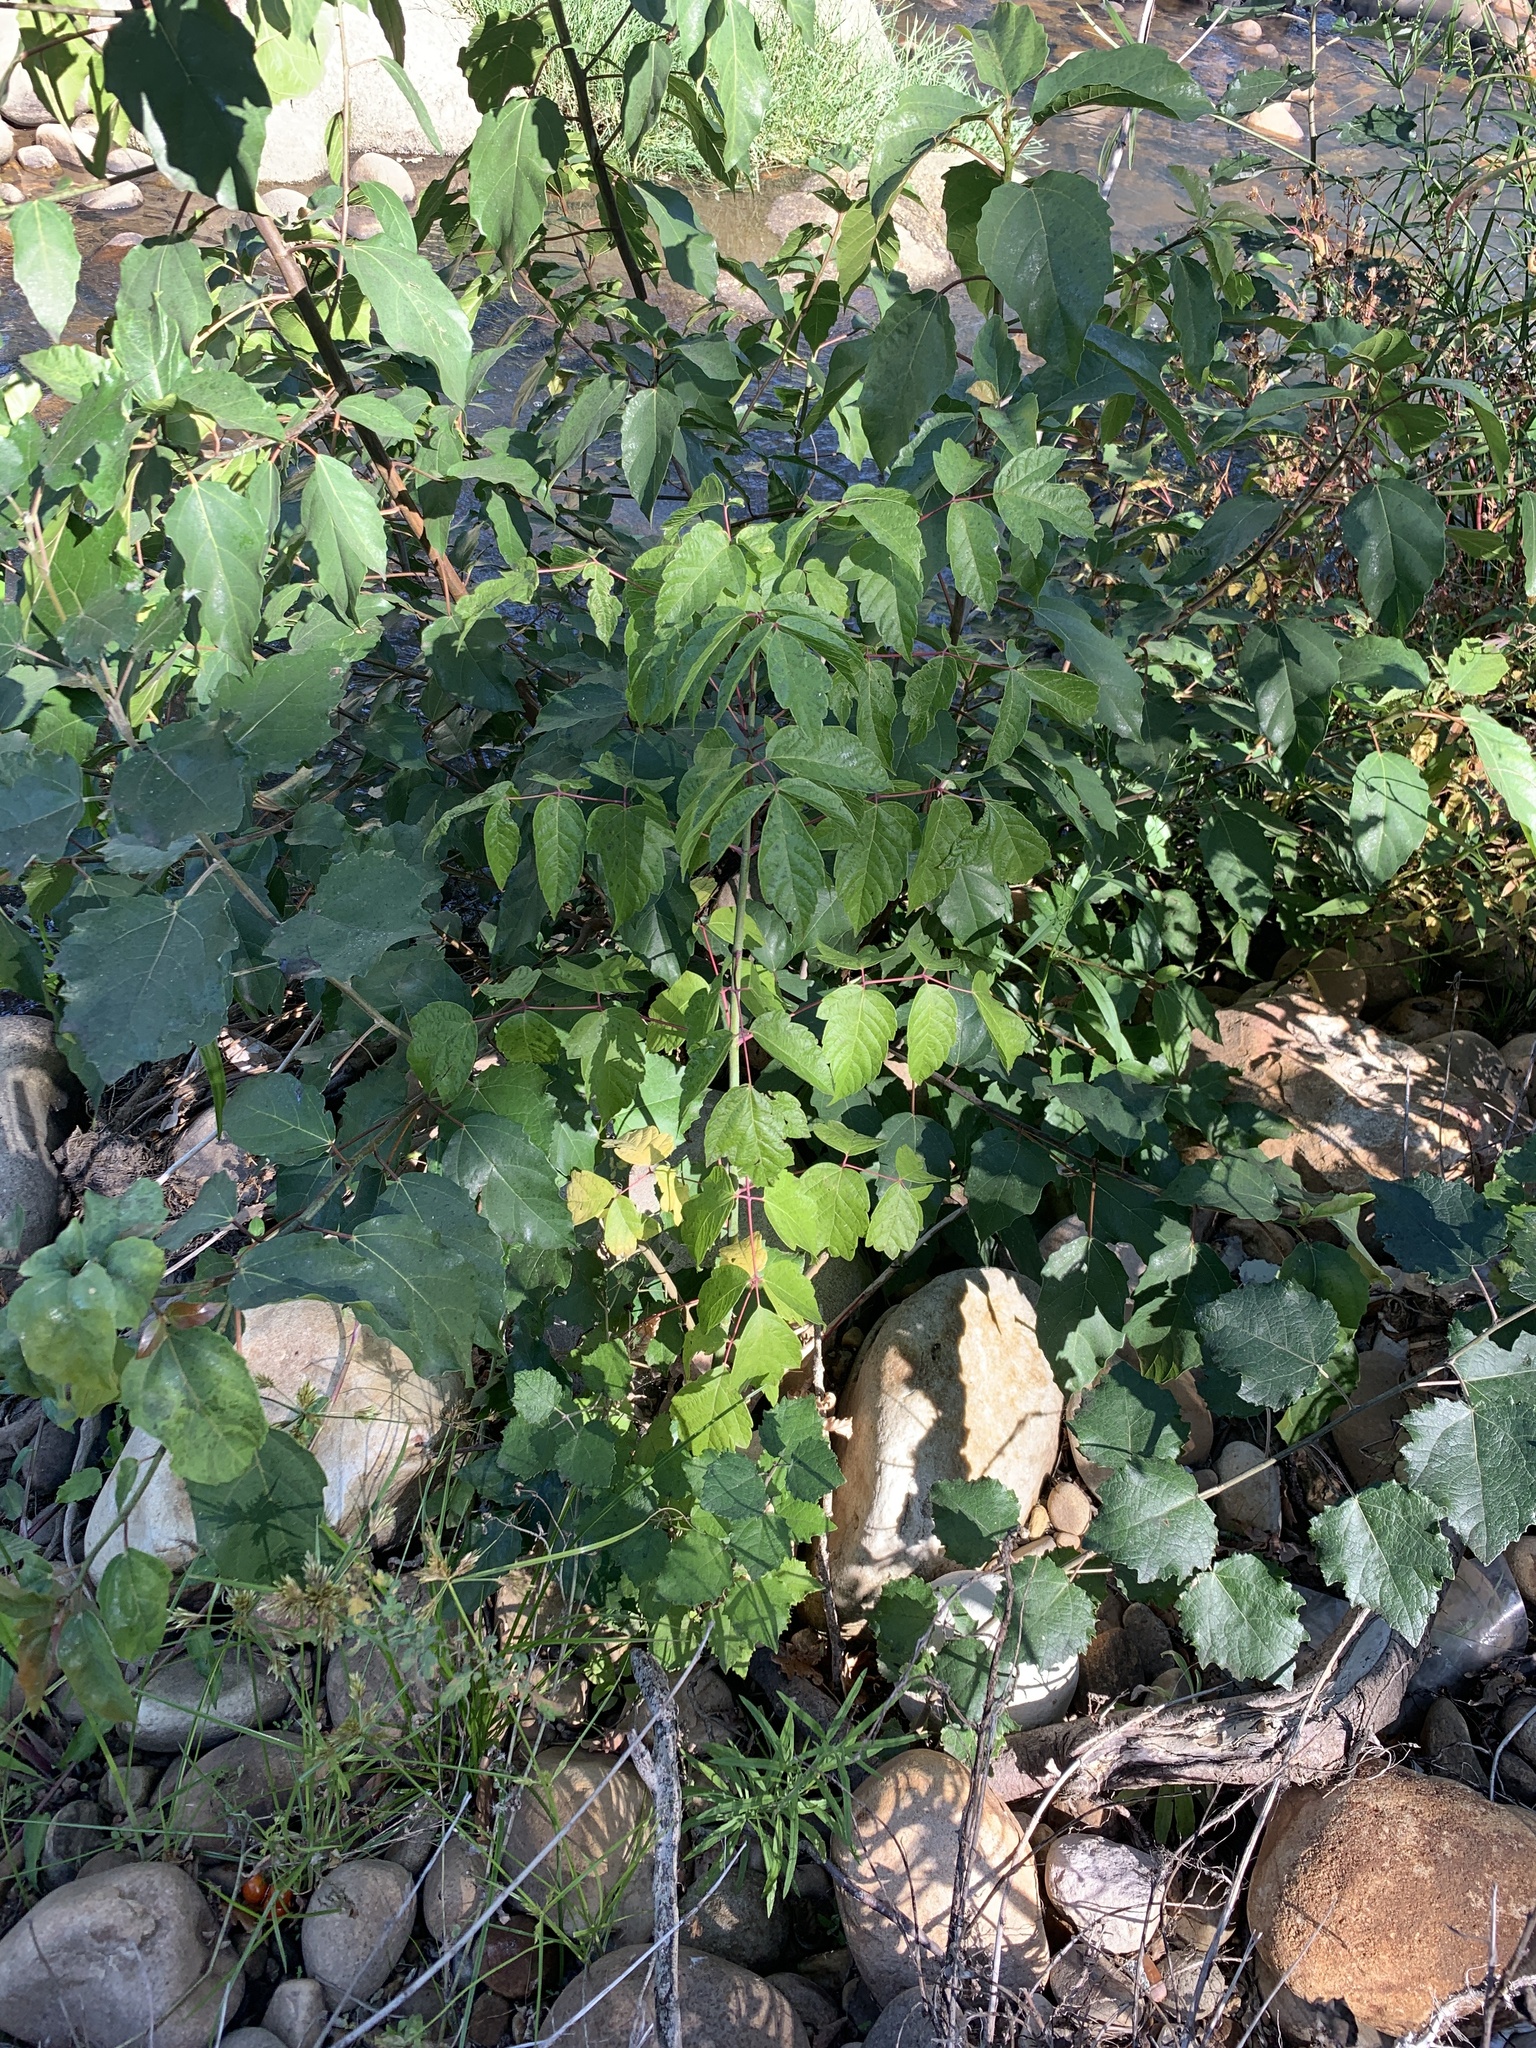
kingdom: Plantae
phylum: Tracheophyta
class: Magnoliopsida
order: Sapindales
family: Sapindaceae
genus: Acer
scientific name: Acer negundo
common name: Ashleaf maple
